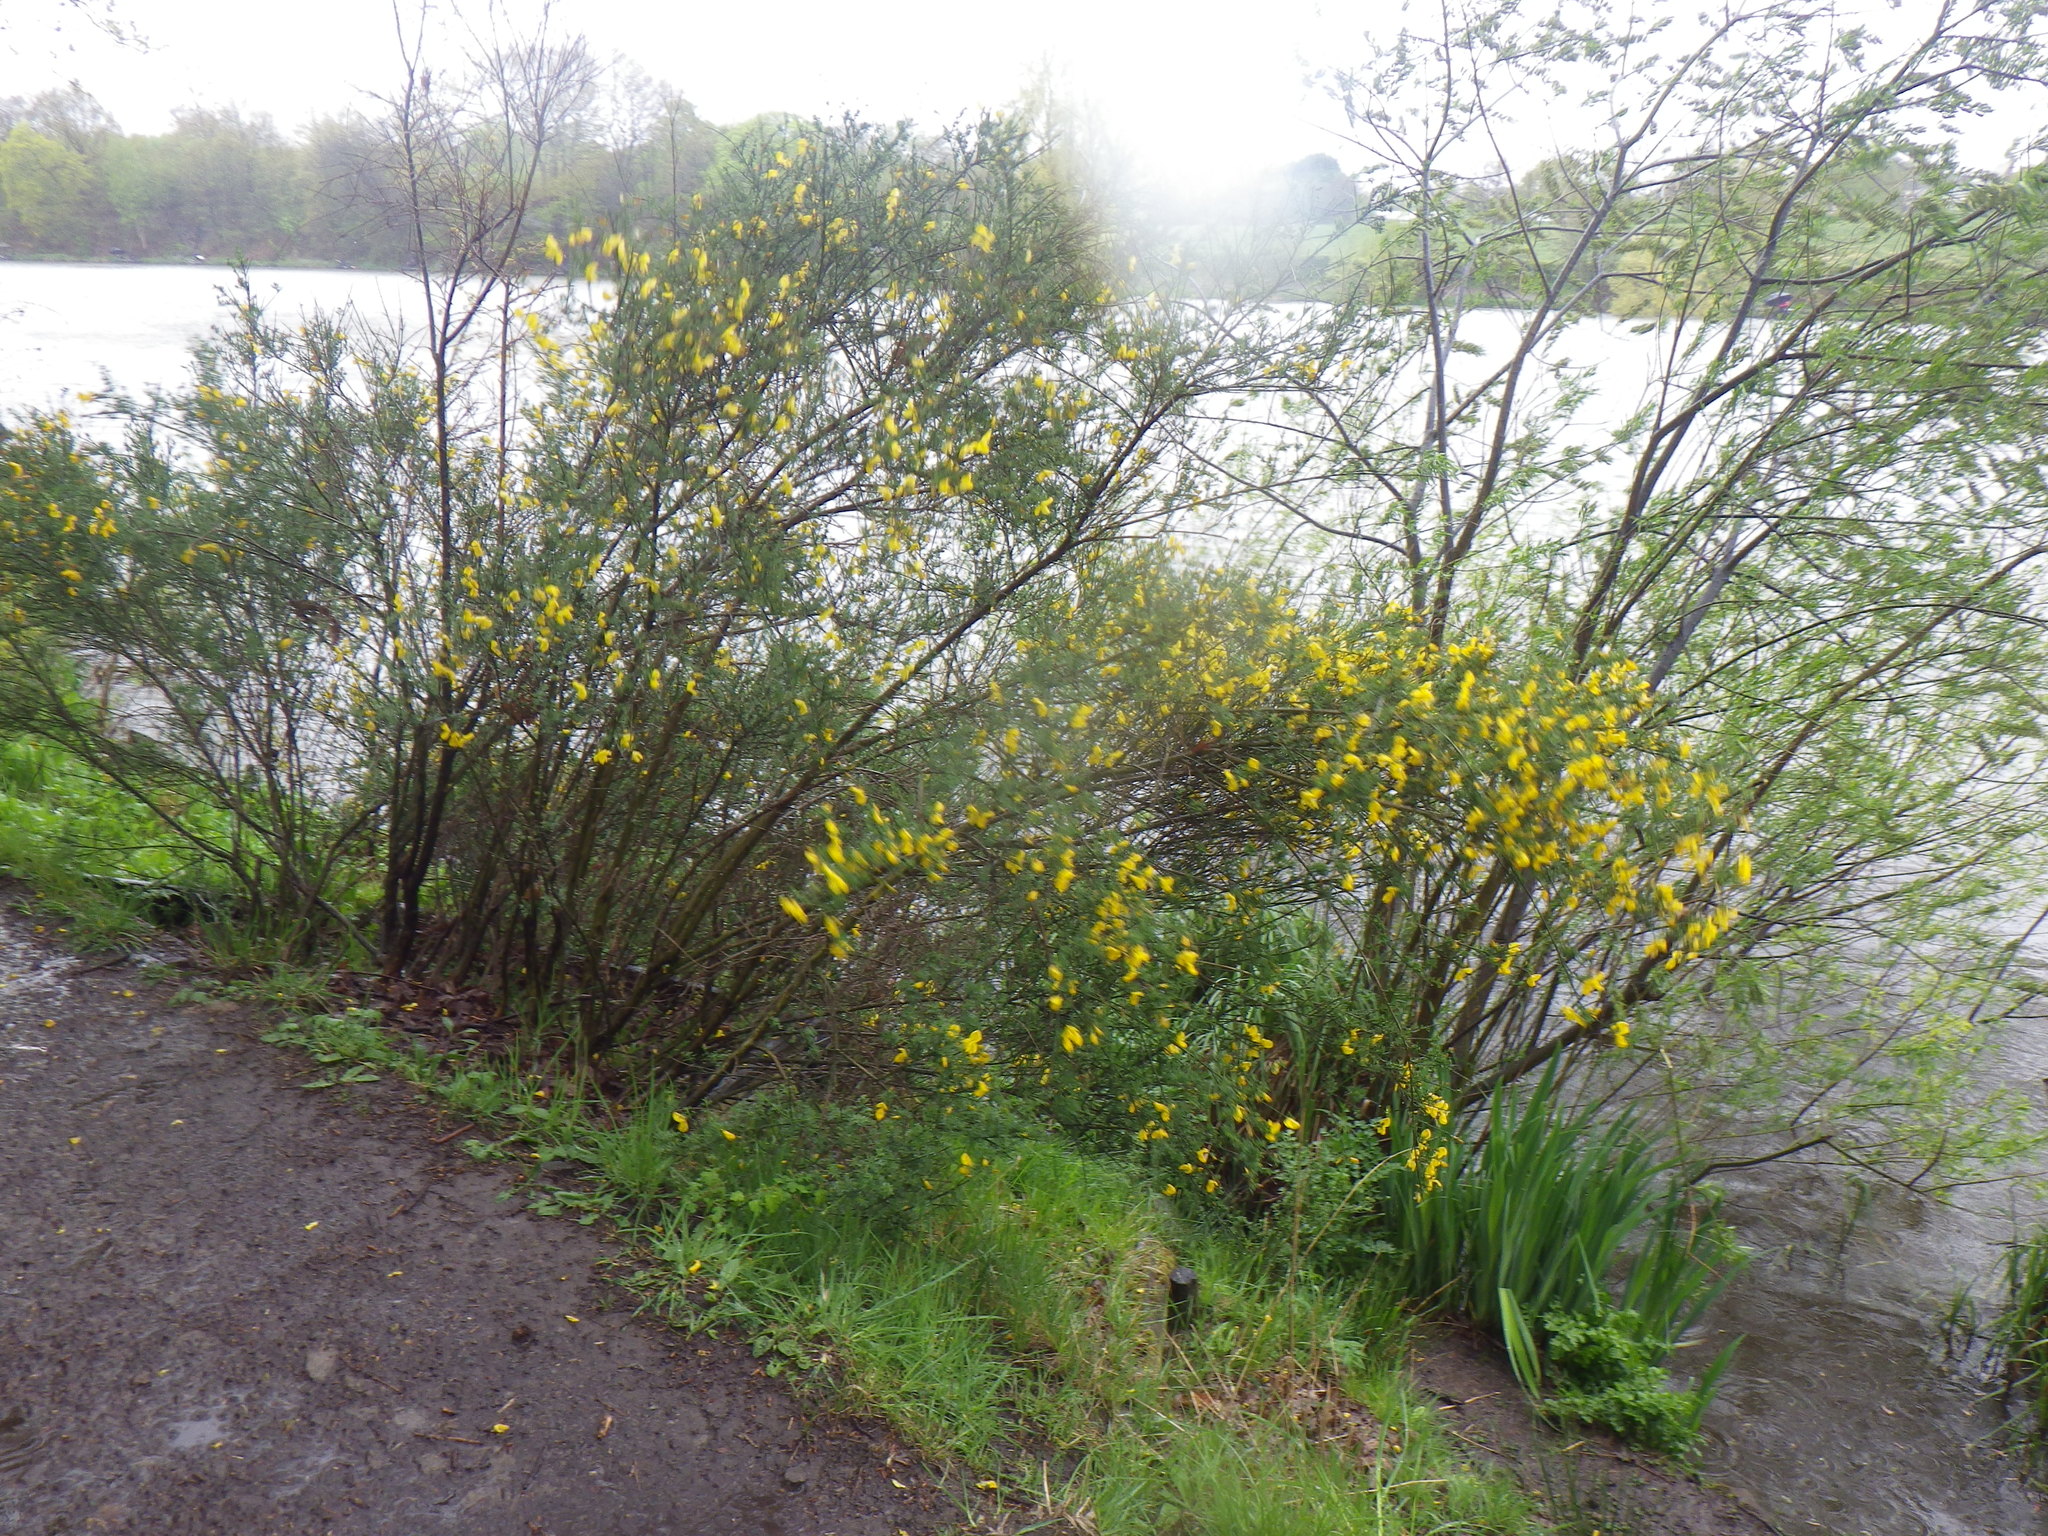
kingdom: Plantae
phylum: Tracheophyta
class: Magnoliopsida
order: Fabales
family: Fabaceae
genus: Cytisus
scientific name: Cytisus scoparius
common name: Scotch broom
